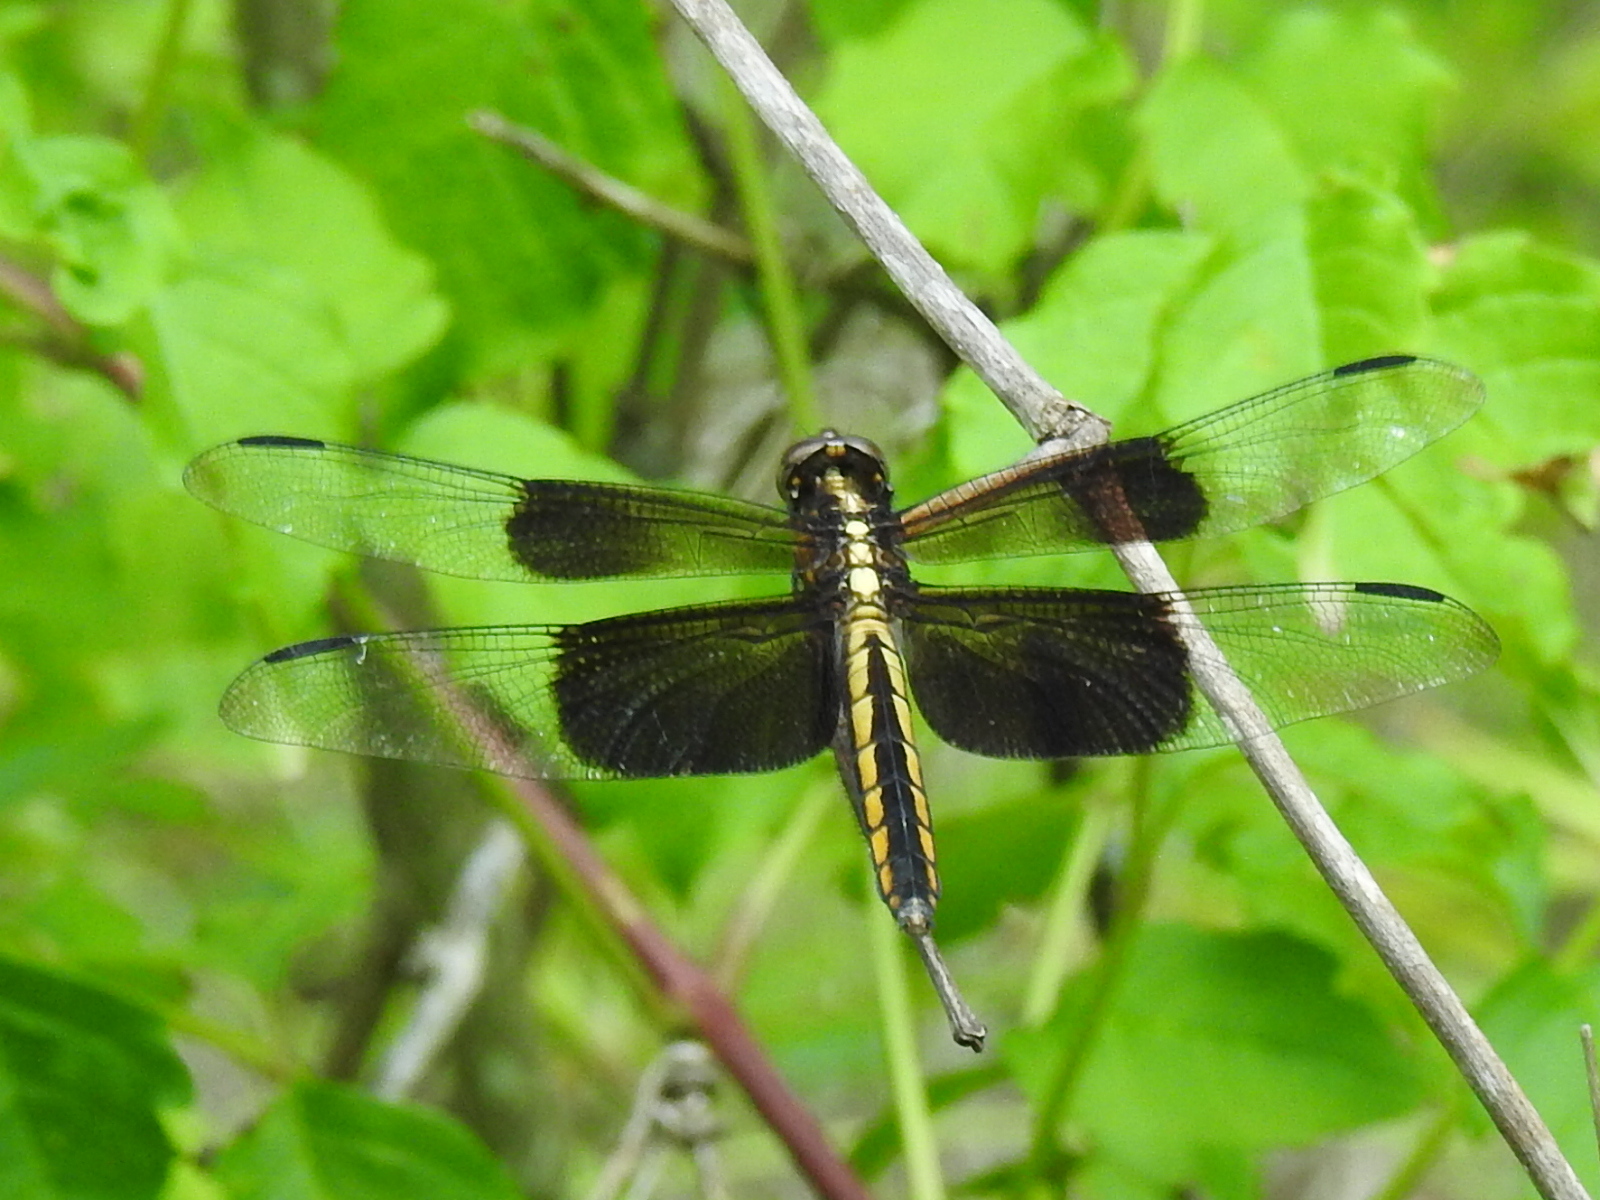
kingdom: Animalia
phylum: Arthropoda
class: Insecta
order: Odonata
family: Libellulidae
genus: Libellula
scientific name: Libellula luctuosa
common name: Widow skimmer
